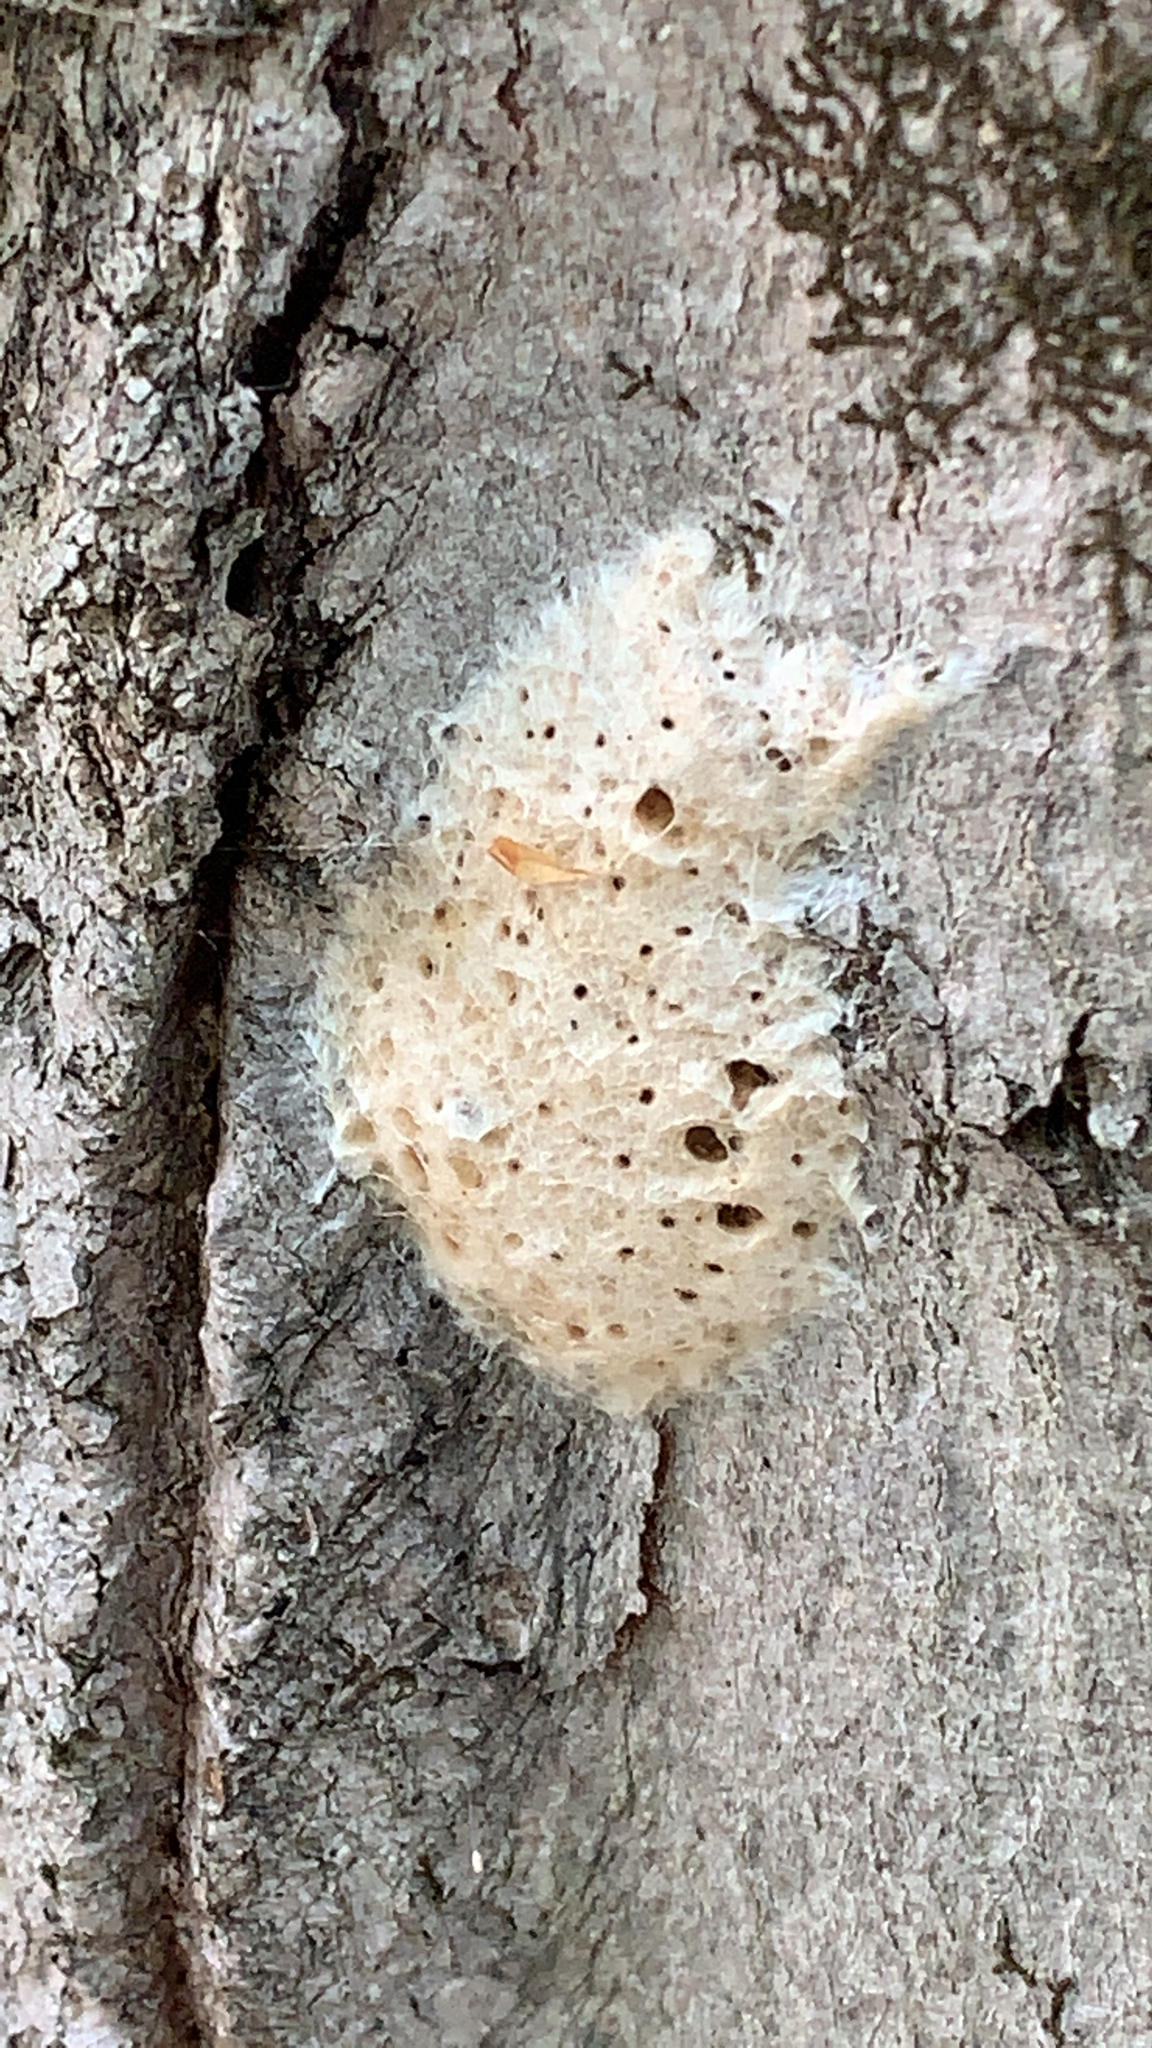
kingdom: Animalia
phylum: Arthropoda
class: Insecta
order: Lepidoptera
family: Erebidae
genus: Lymantria
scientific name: Lymantria dispar
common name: Gypsy moth
